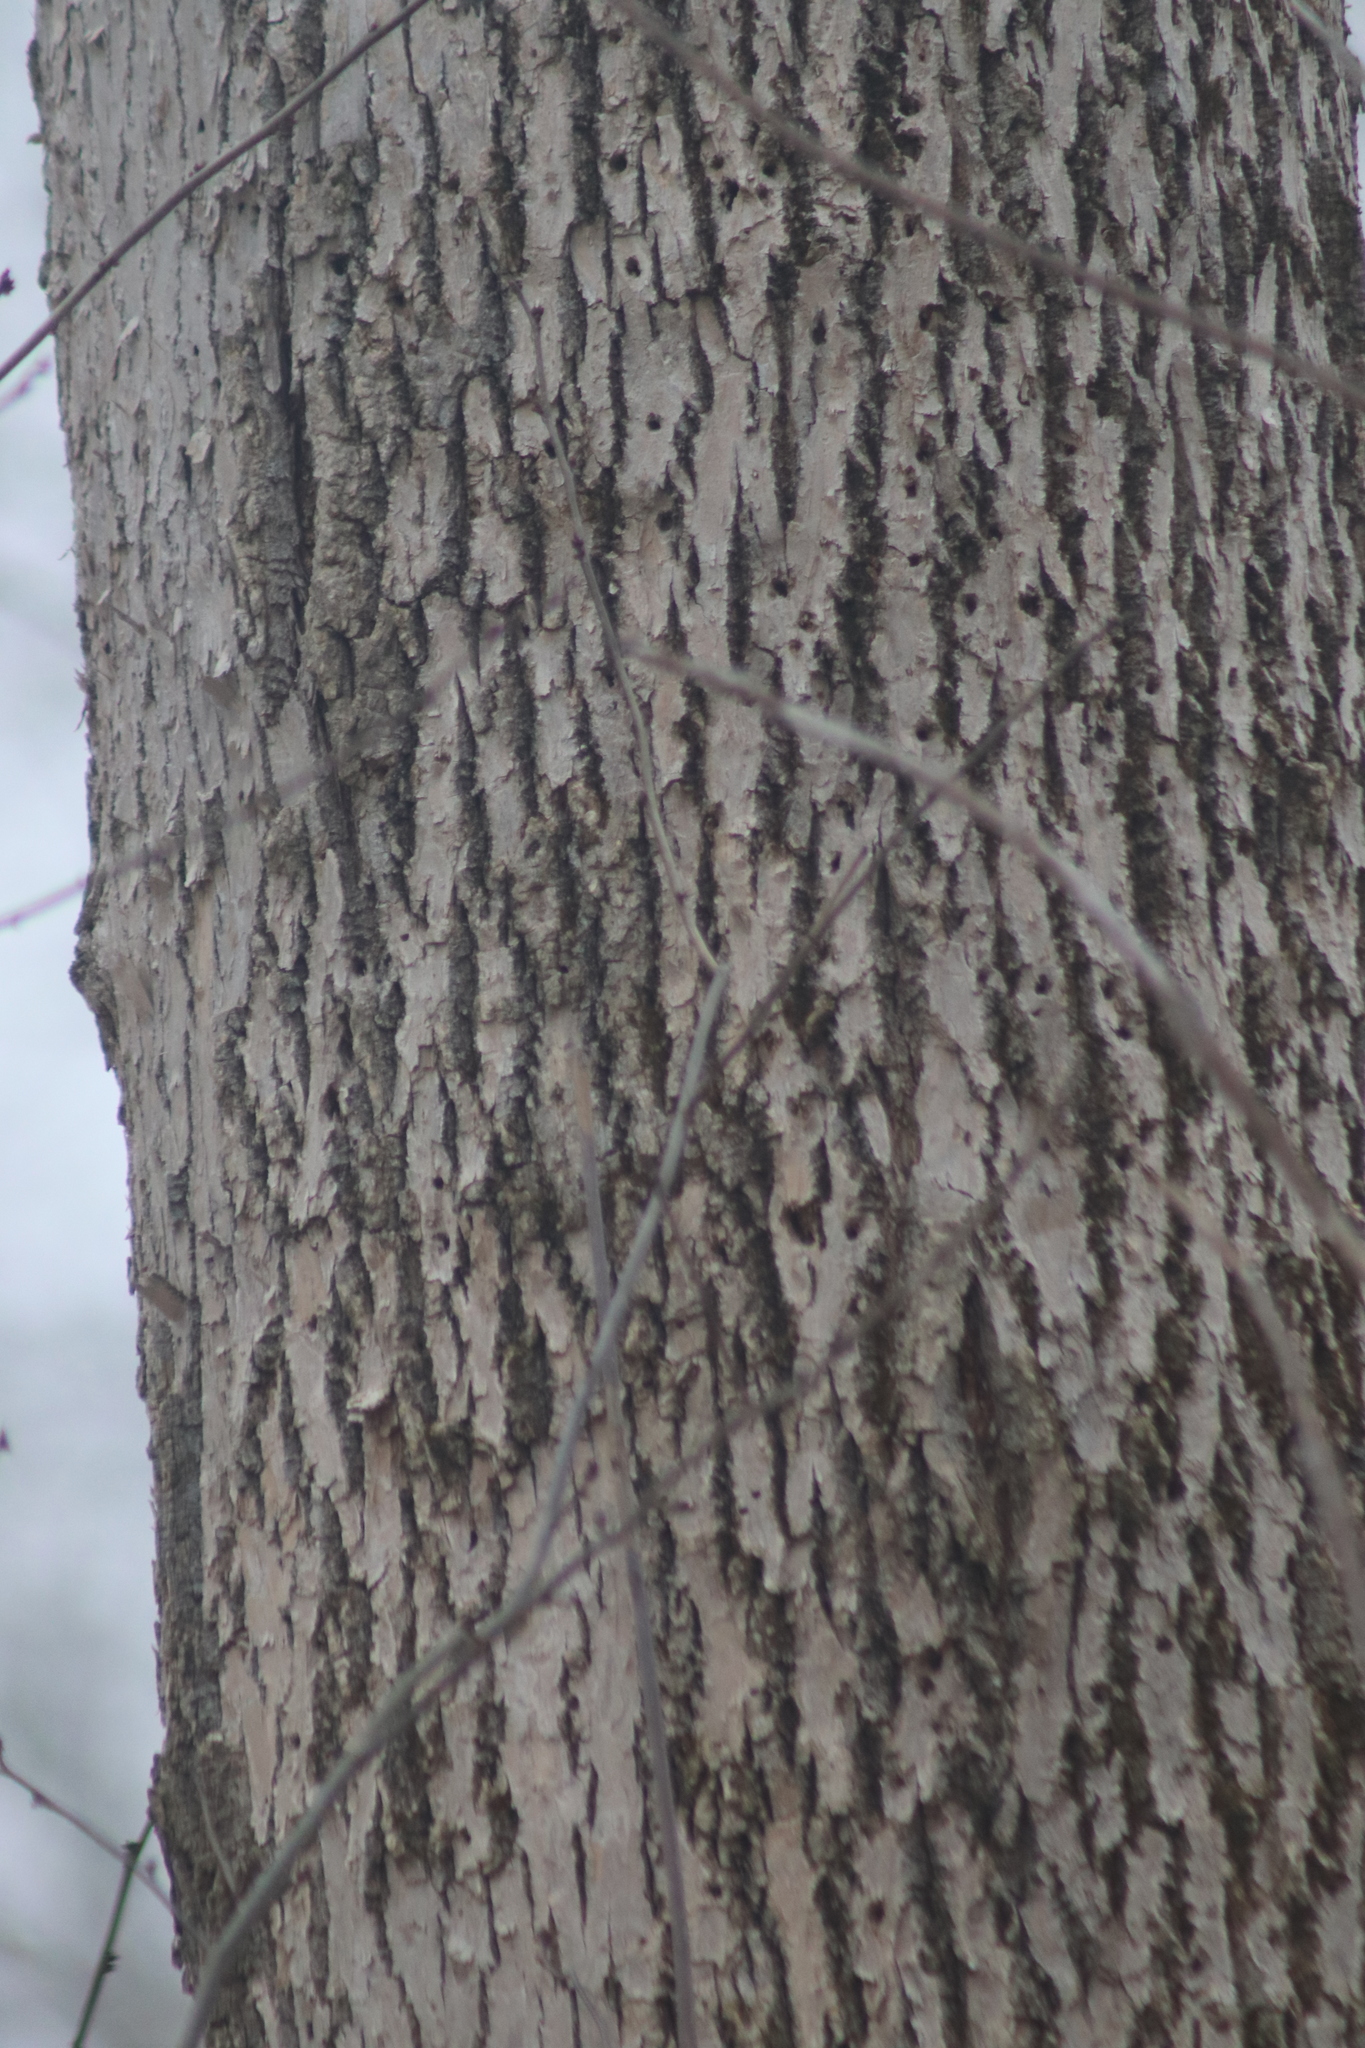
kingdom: Animalia
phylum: Arthropoda
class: Insecta
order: Coleoptera
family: Buprestidae
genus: Agrilus
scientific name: Agrilus planipennis
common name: Emerald ash borer
